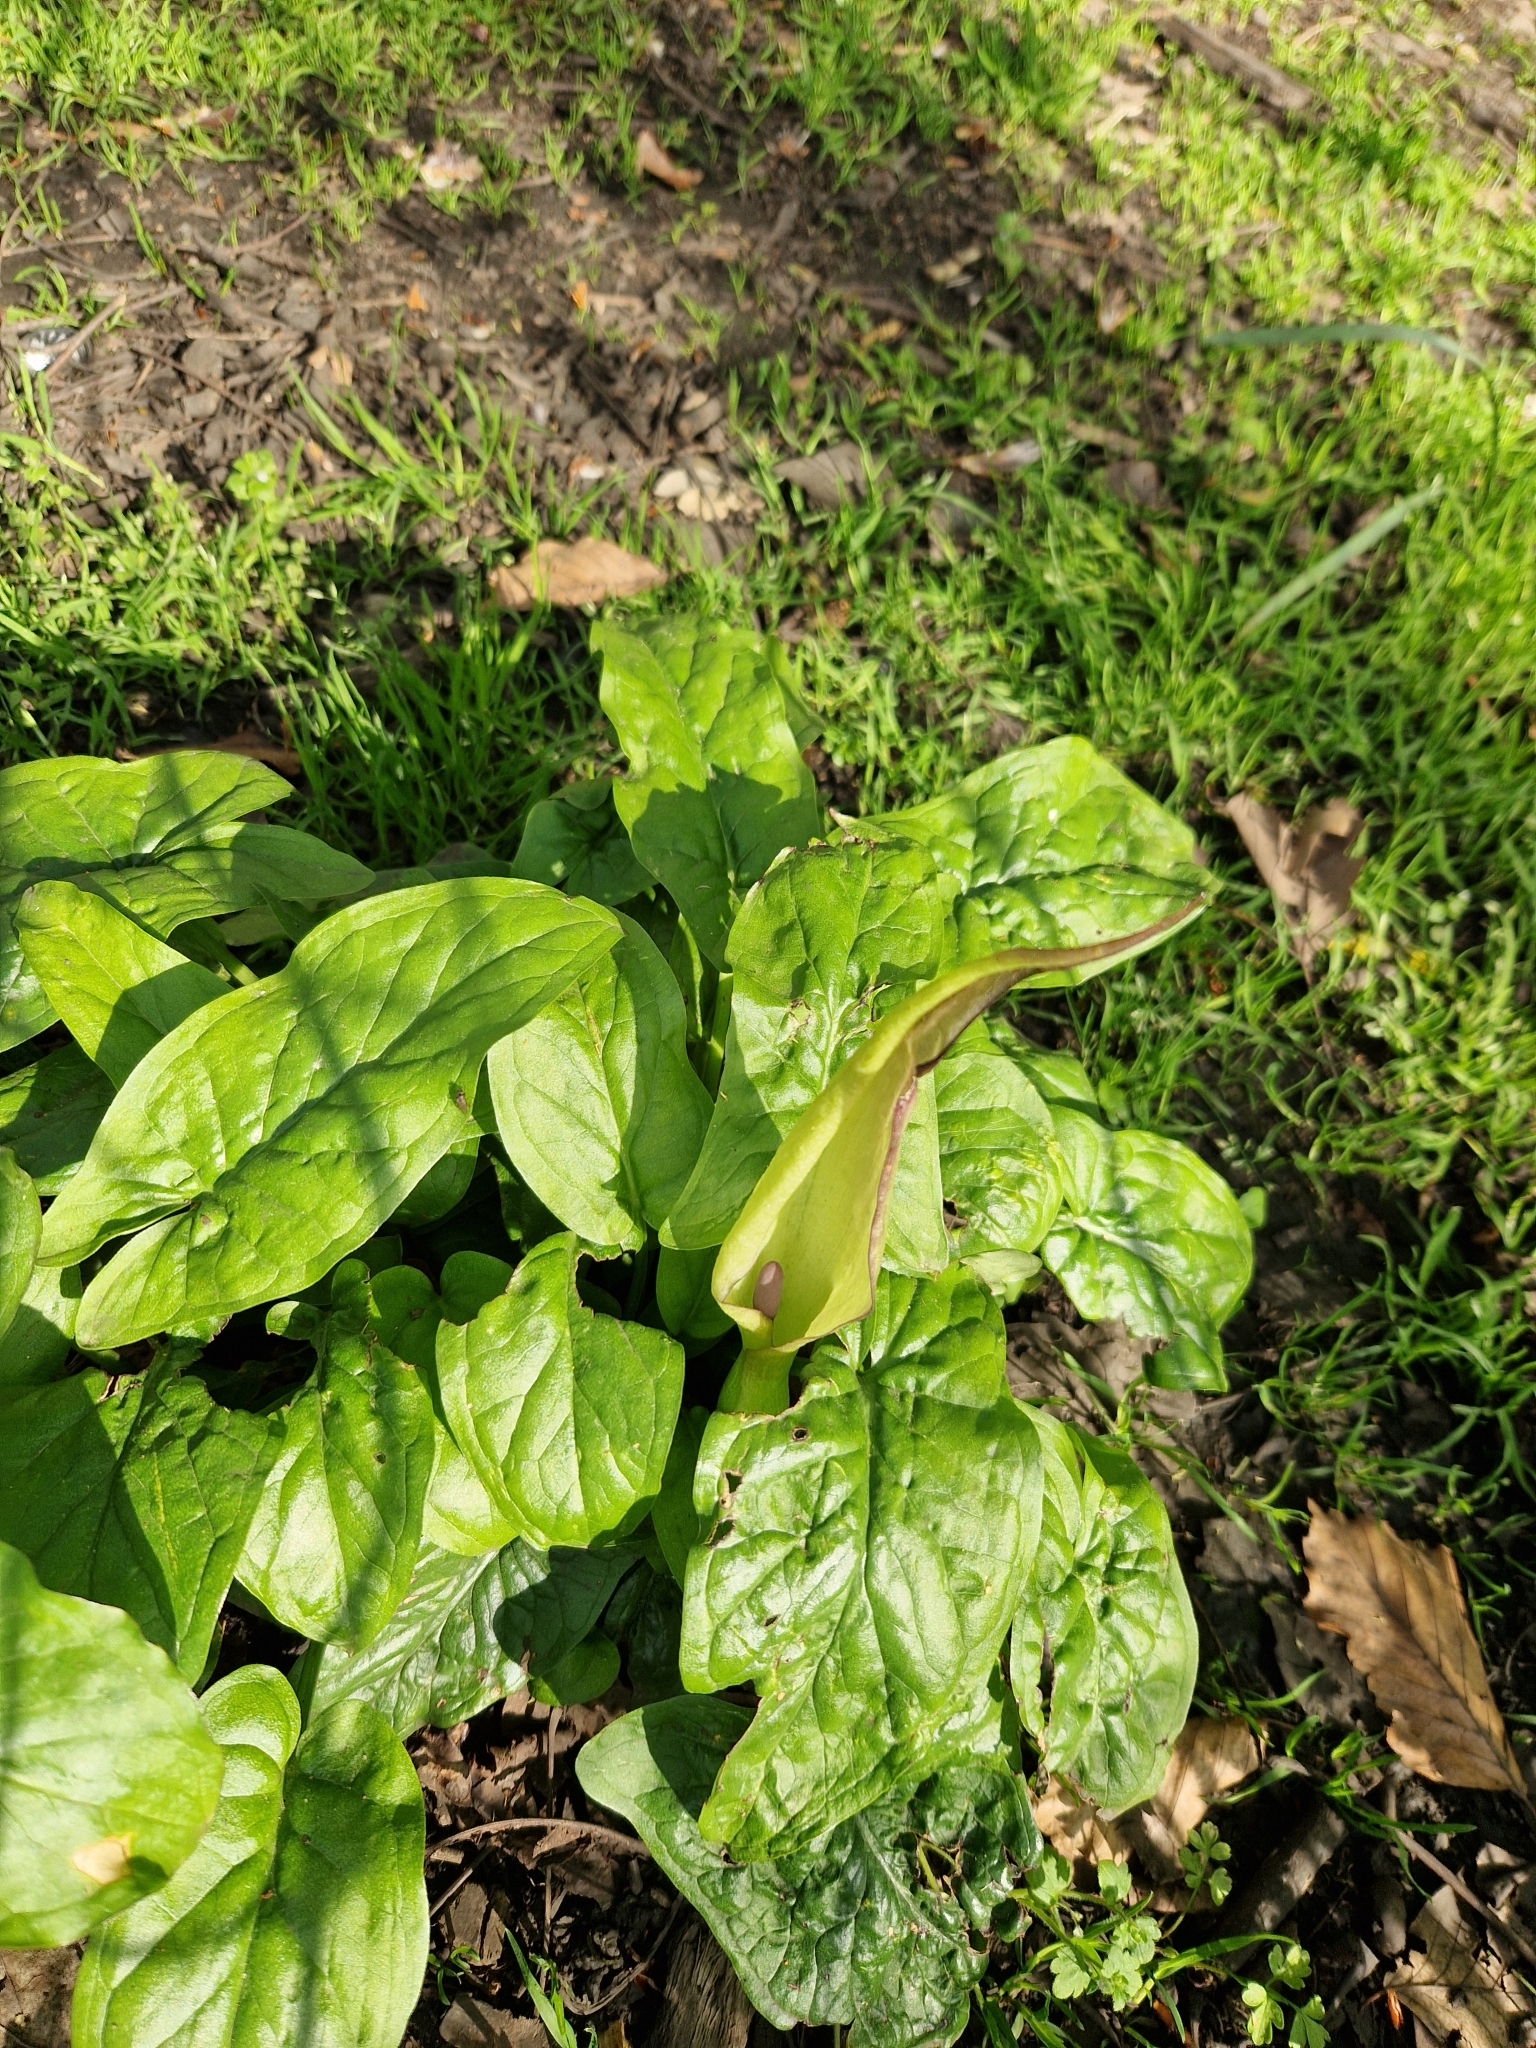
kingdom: Plantae
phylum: Tracheophyta
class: Liliopsida
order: Alismatales
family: Araceae
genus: Arum
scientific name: Arum maculatum
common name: Lords-and-ladies
